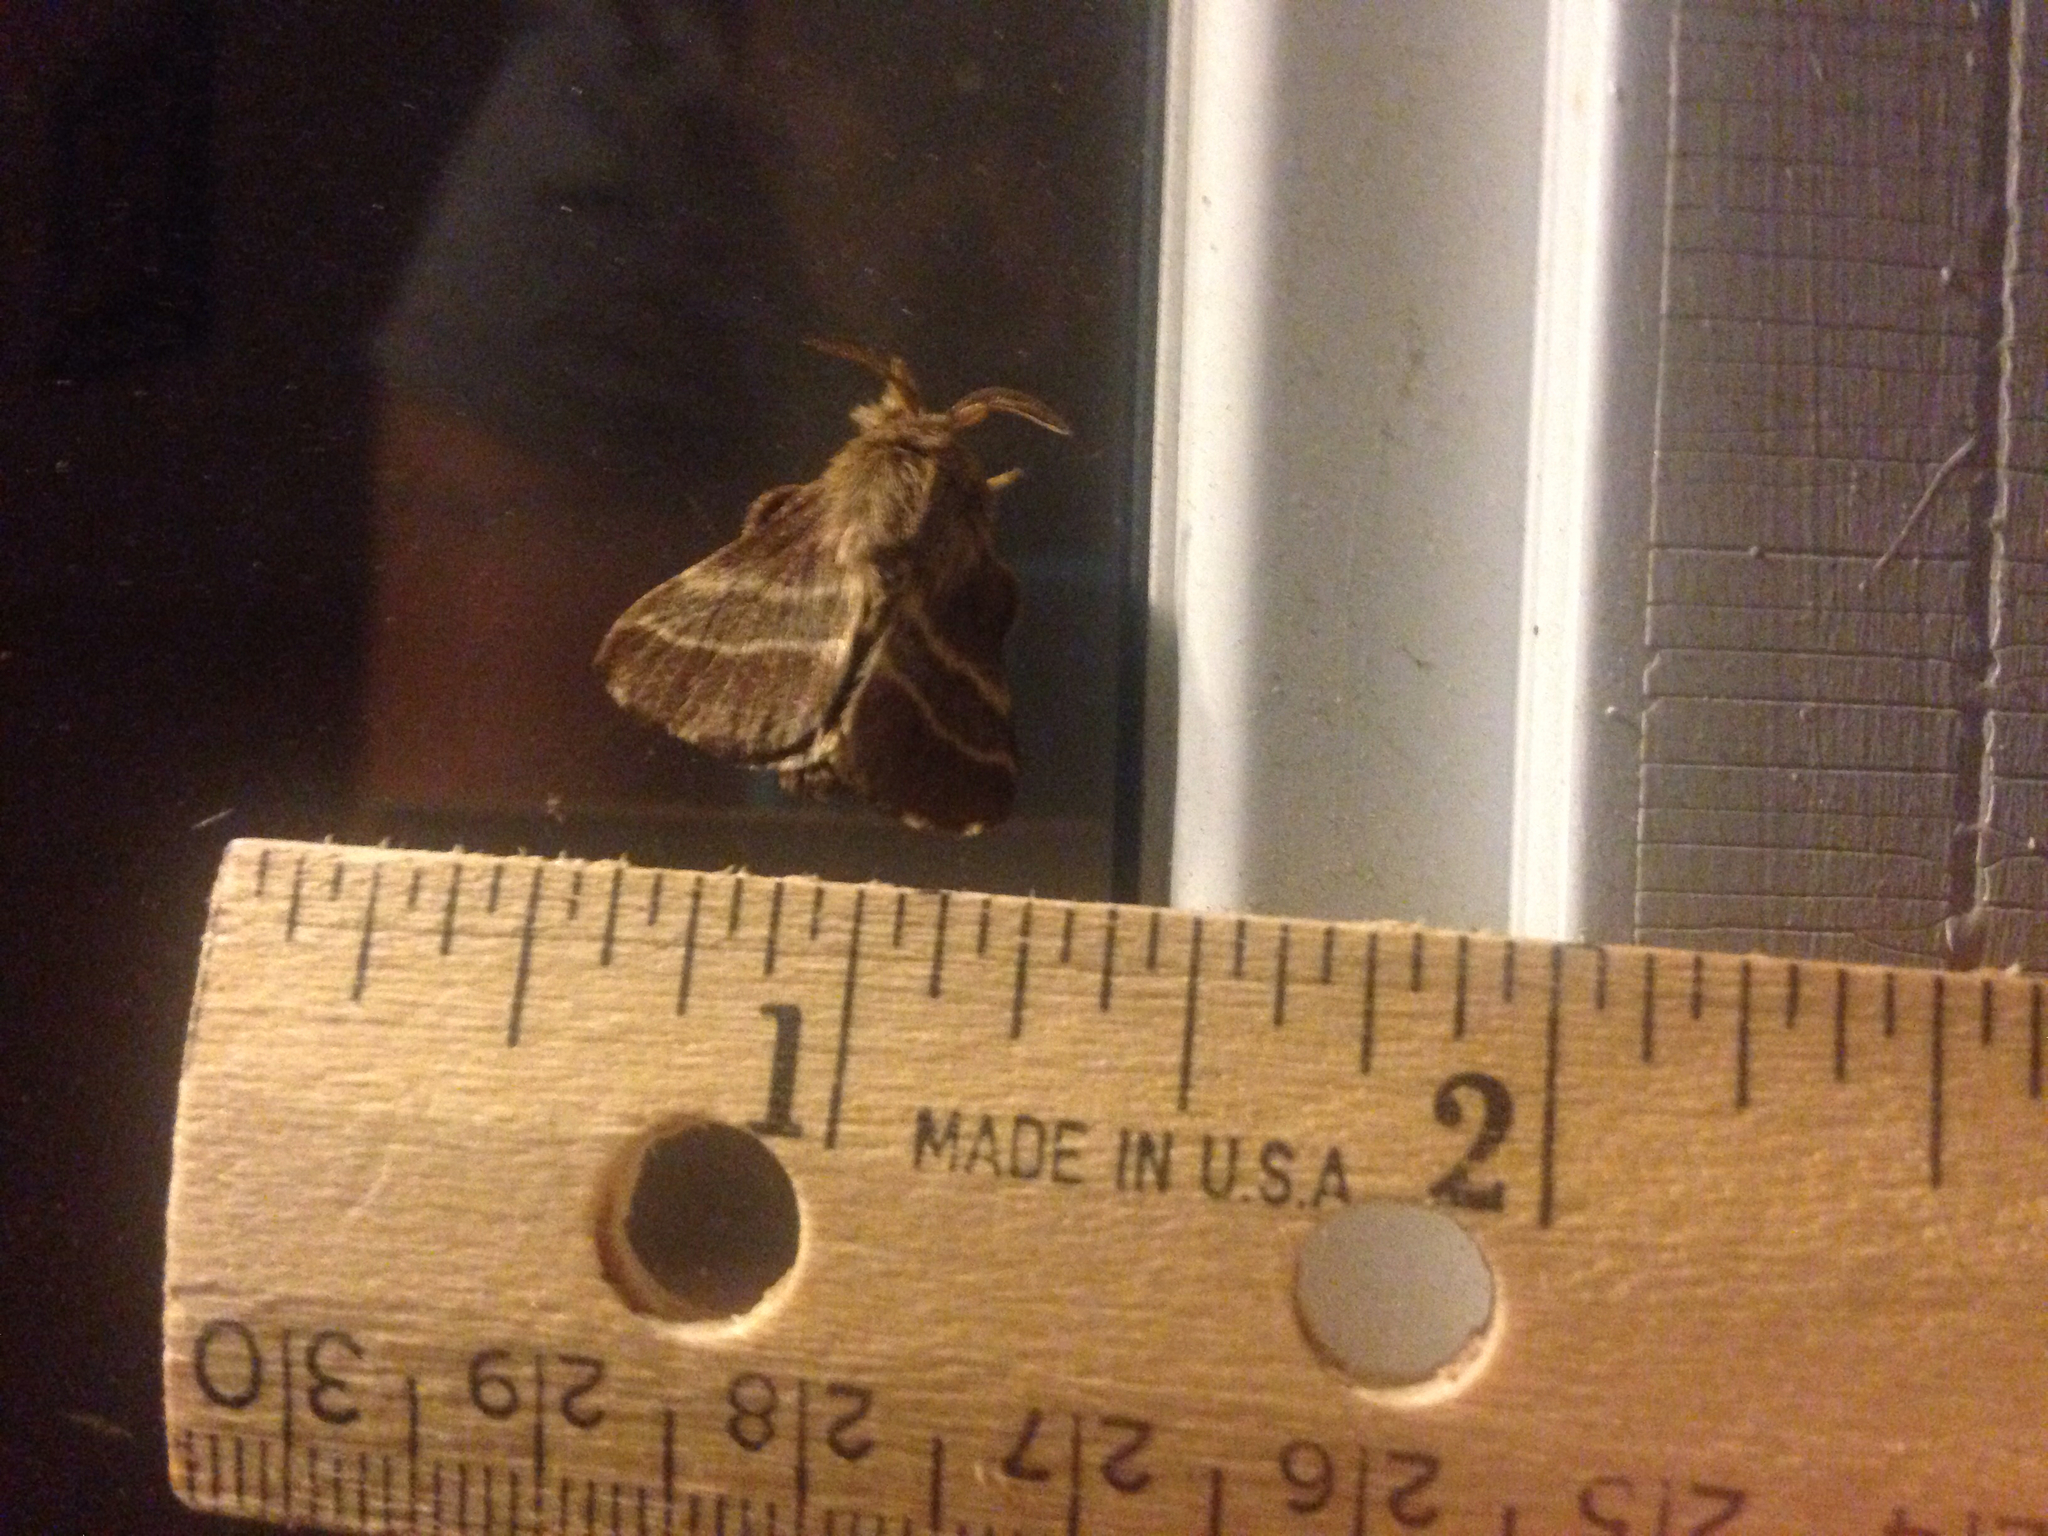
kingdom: Animalia
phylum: Arthropoda
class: Insecta
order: Lepidoptera
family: Lasiocampidae
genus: Malacosoma
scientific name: Malacosoma americana
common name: Eastern tent caterpillar moth
